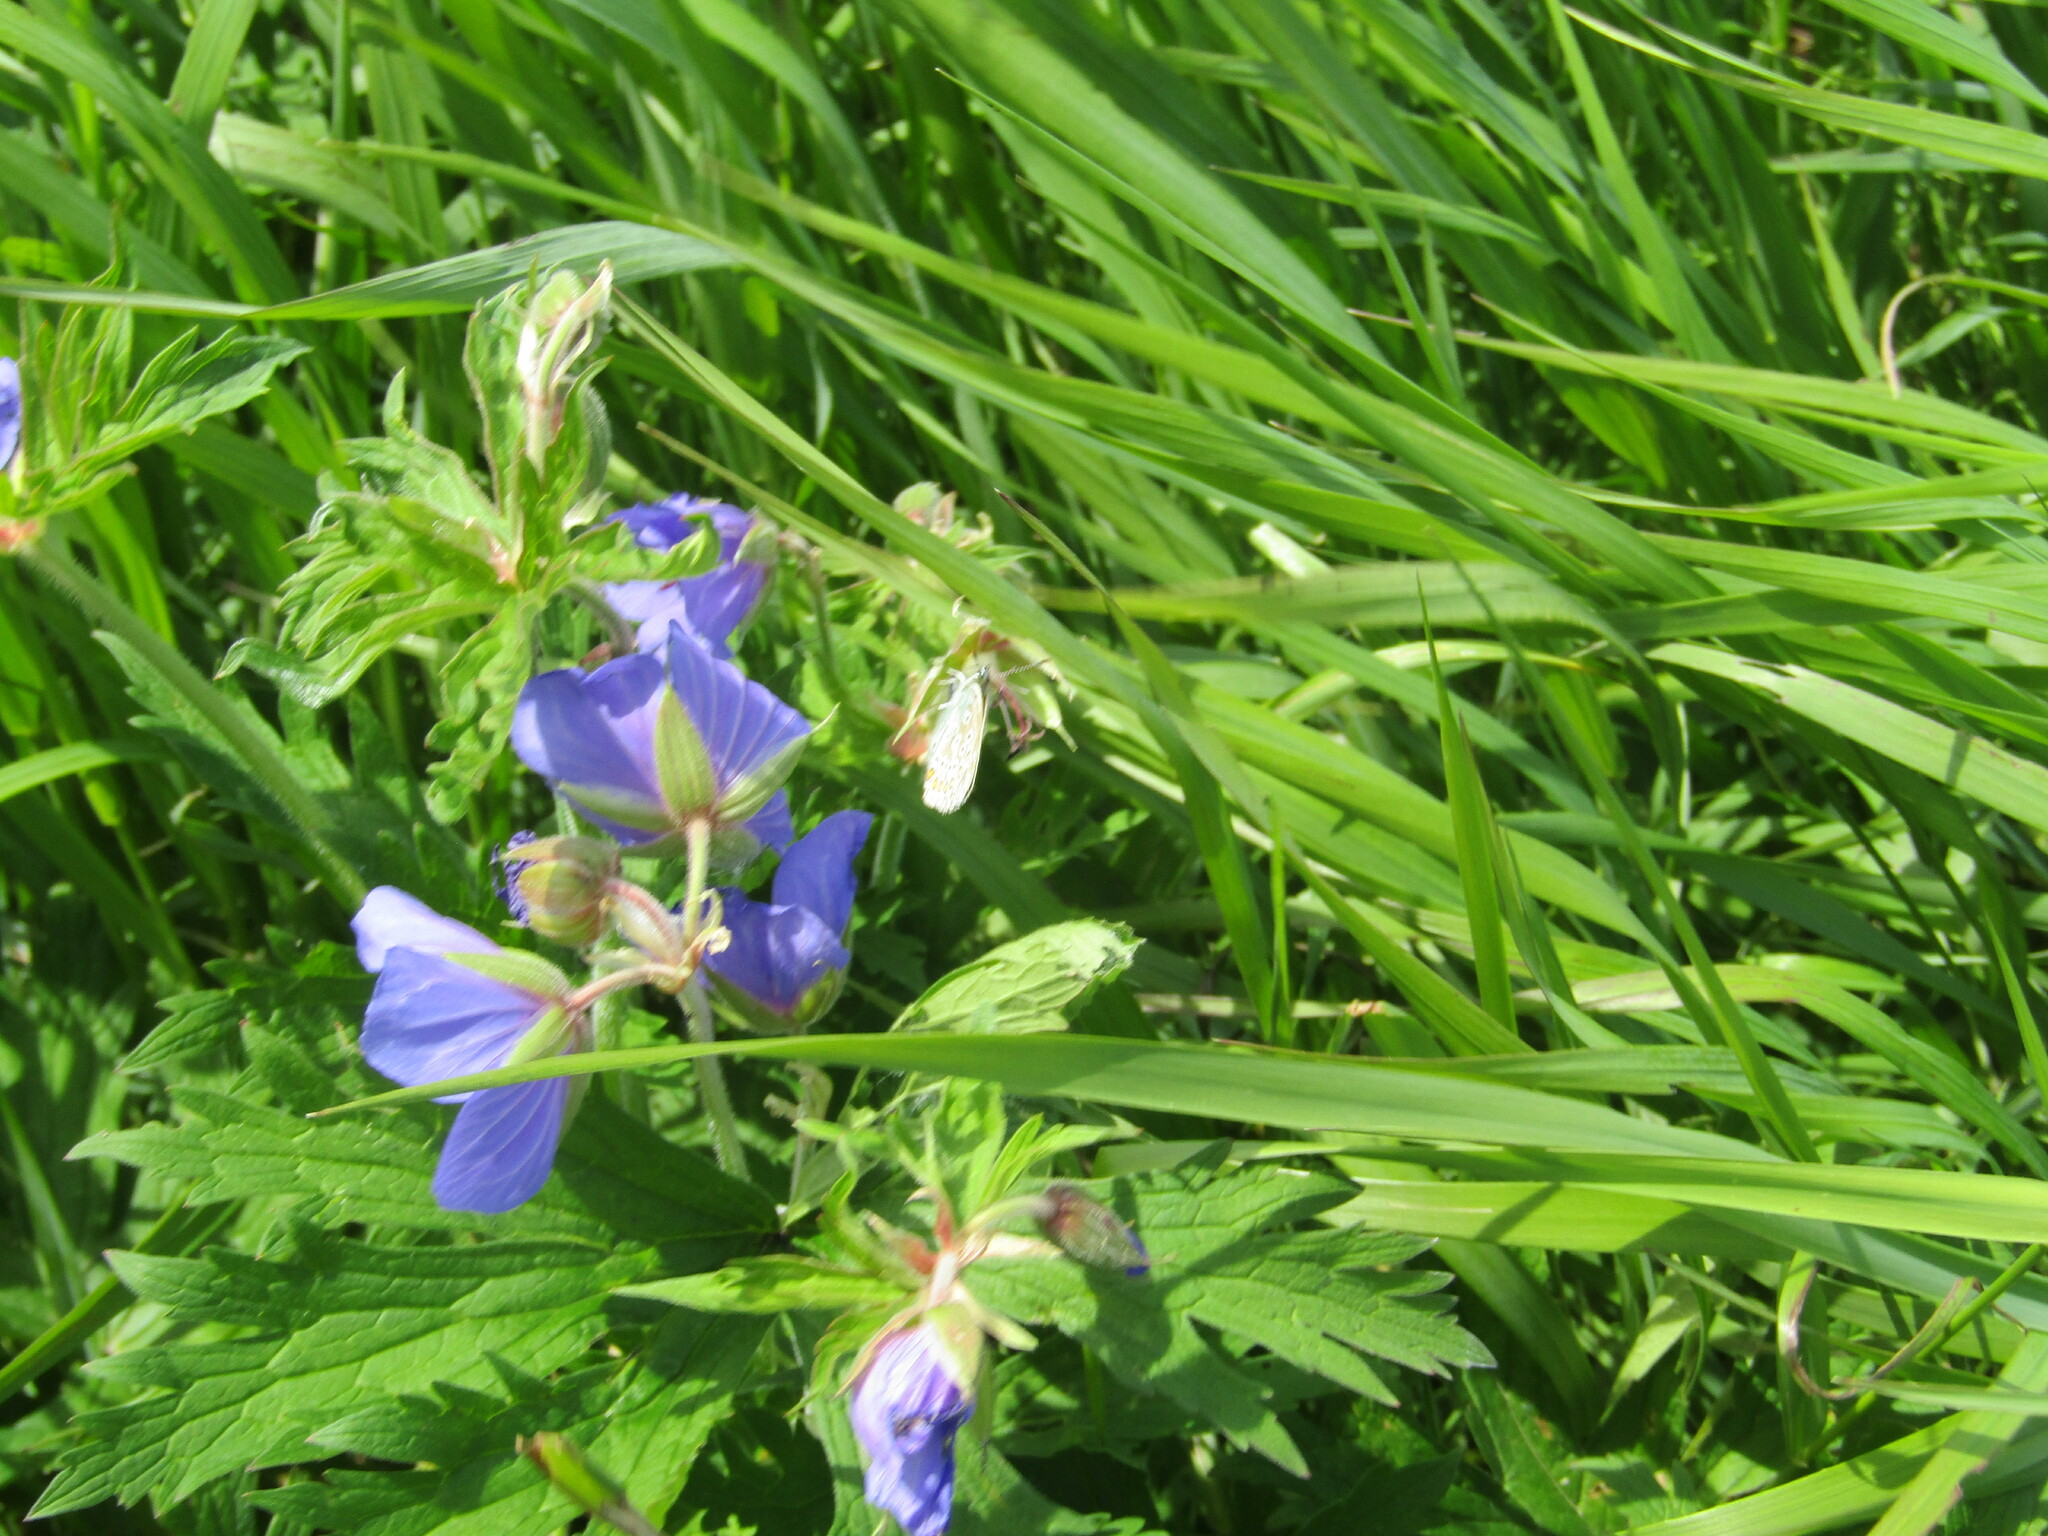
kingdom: Plantae
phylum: Tracheophyta
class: Magnoliopsida
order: Geraniales
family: Geraniaceae
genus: Geranium
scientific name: Geranium pratense
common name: Meadow crane's-bill
